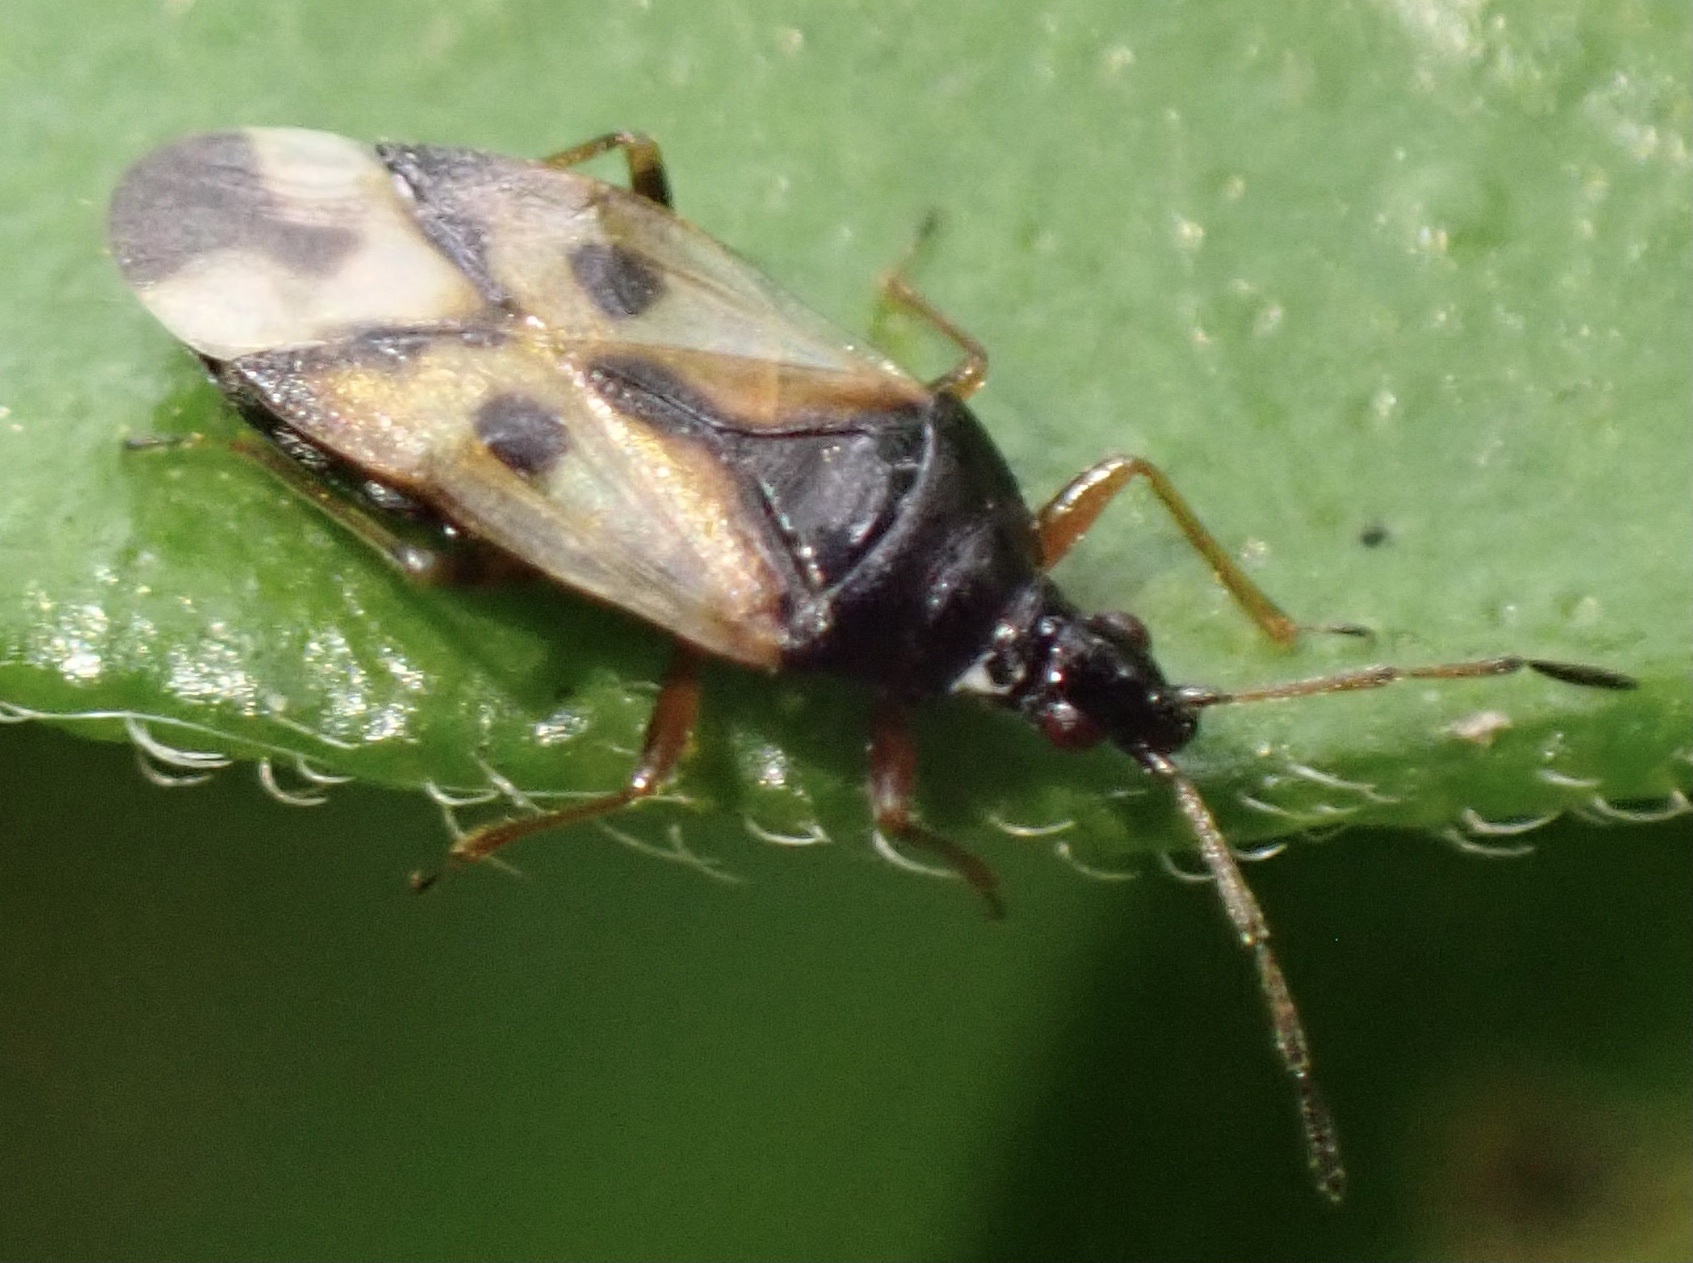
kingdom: Animalia
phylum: Arthropoda
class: Insecta
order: Hemiptera
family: Anthocoridae
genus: Anthocoris
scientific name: Anthocoris nemorum
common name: Minute pirate bug
